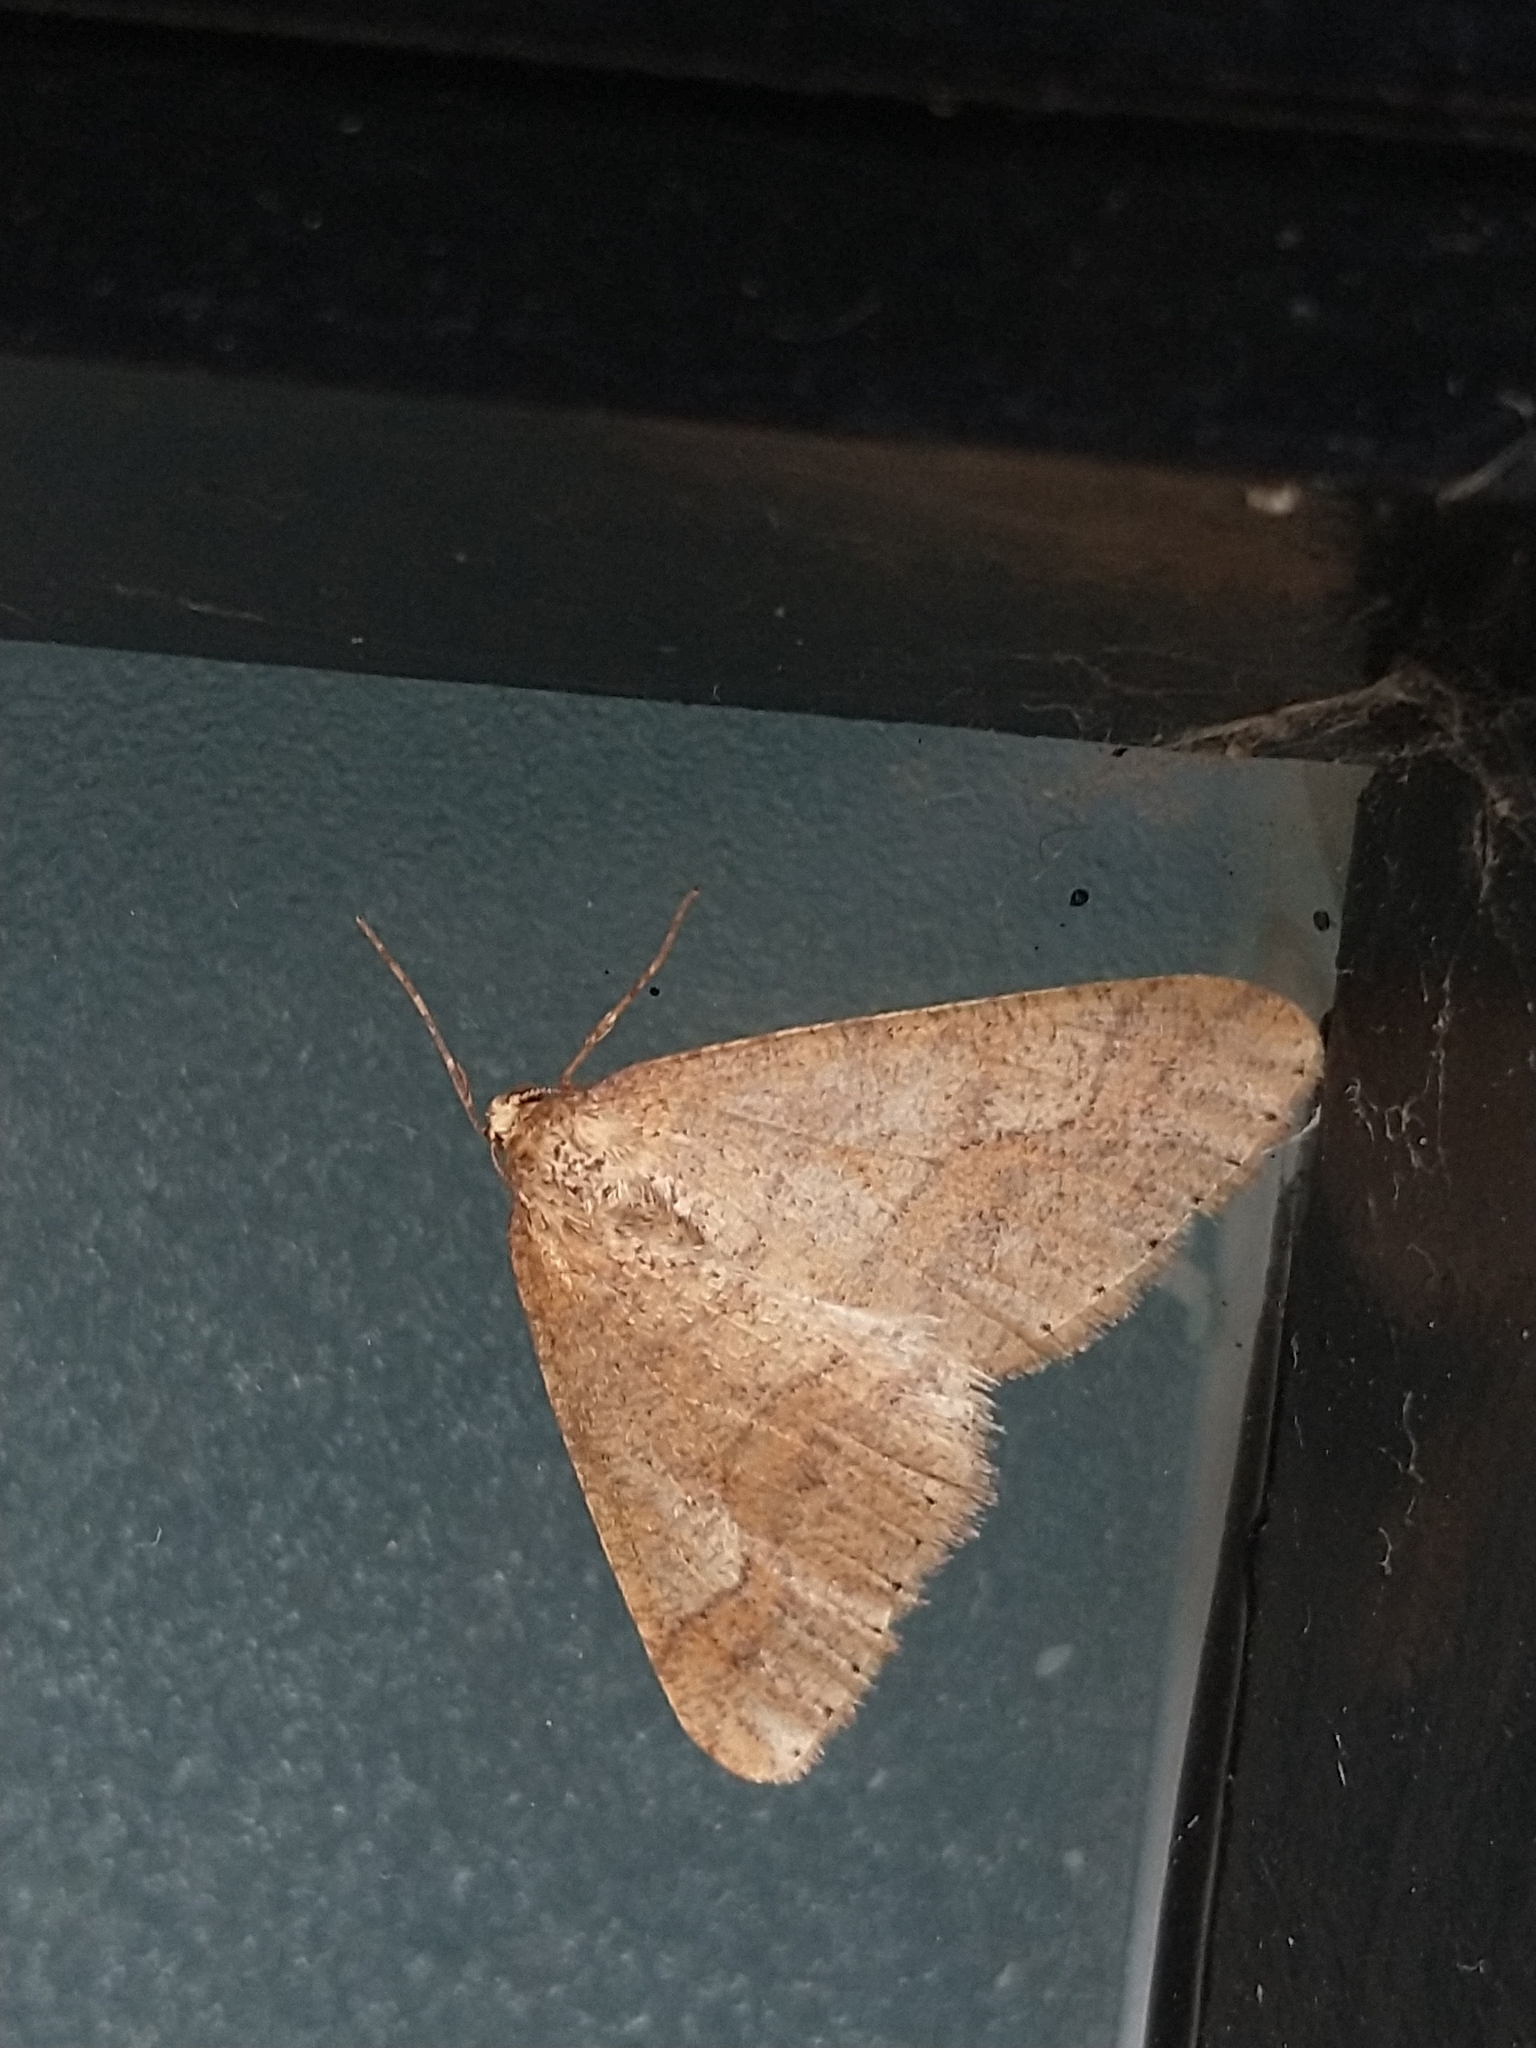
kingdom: Animalia
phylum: Arthropoda
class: Insecta
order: Lepidoptera
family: Geometridae
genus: Agriopis
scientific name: Agriopis marginaria
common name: Dotted border
